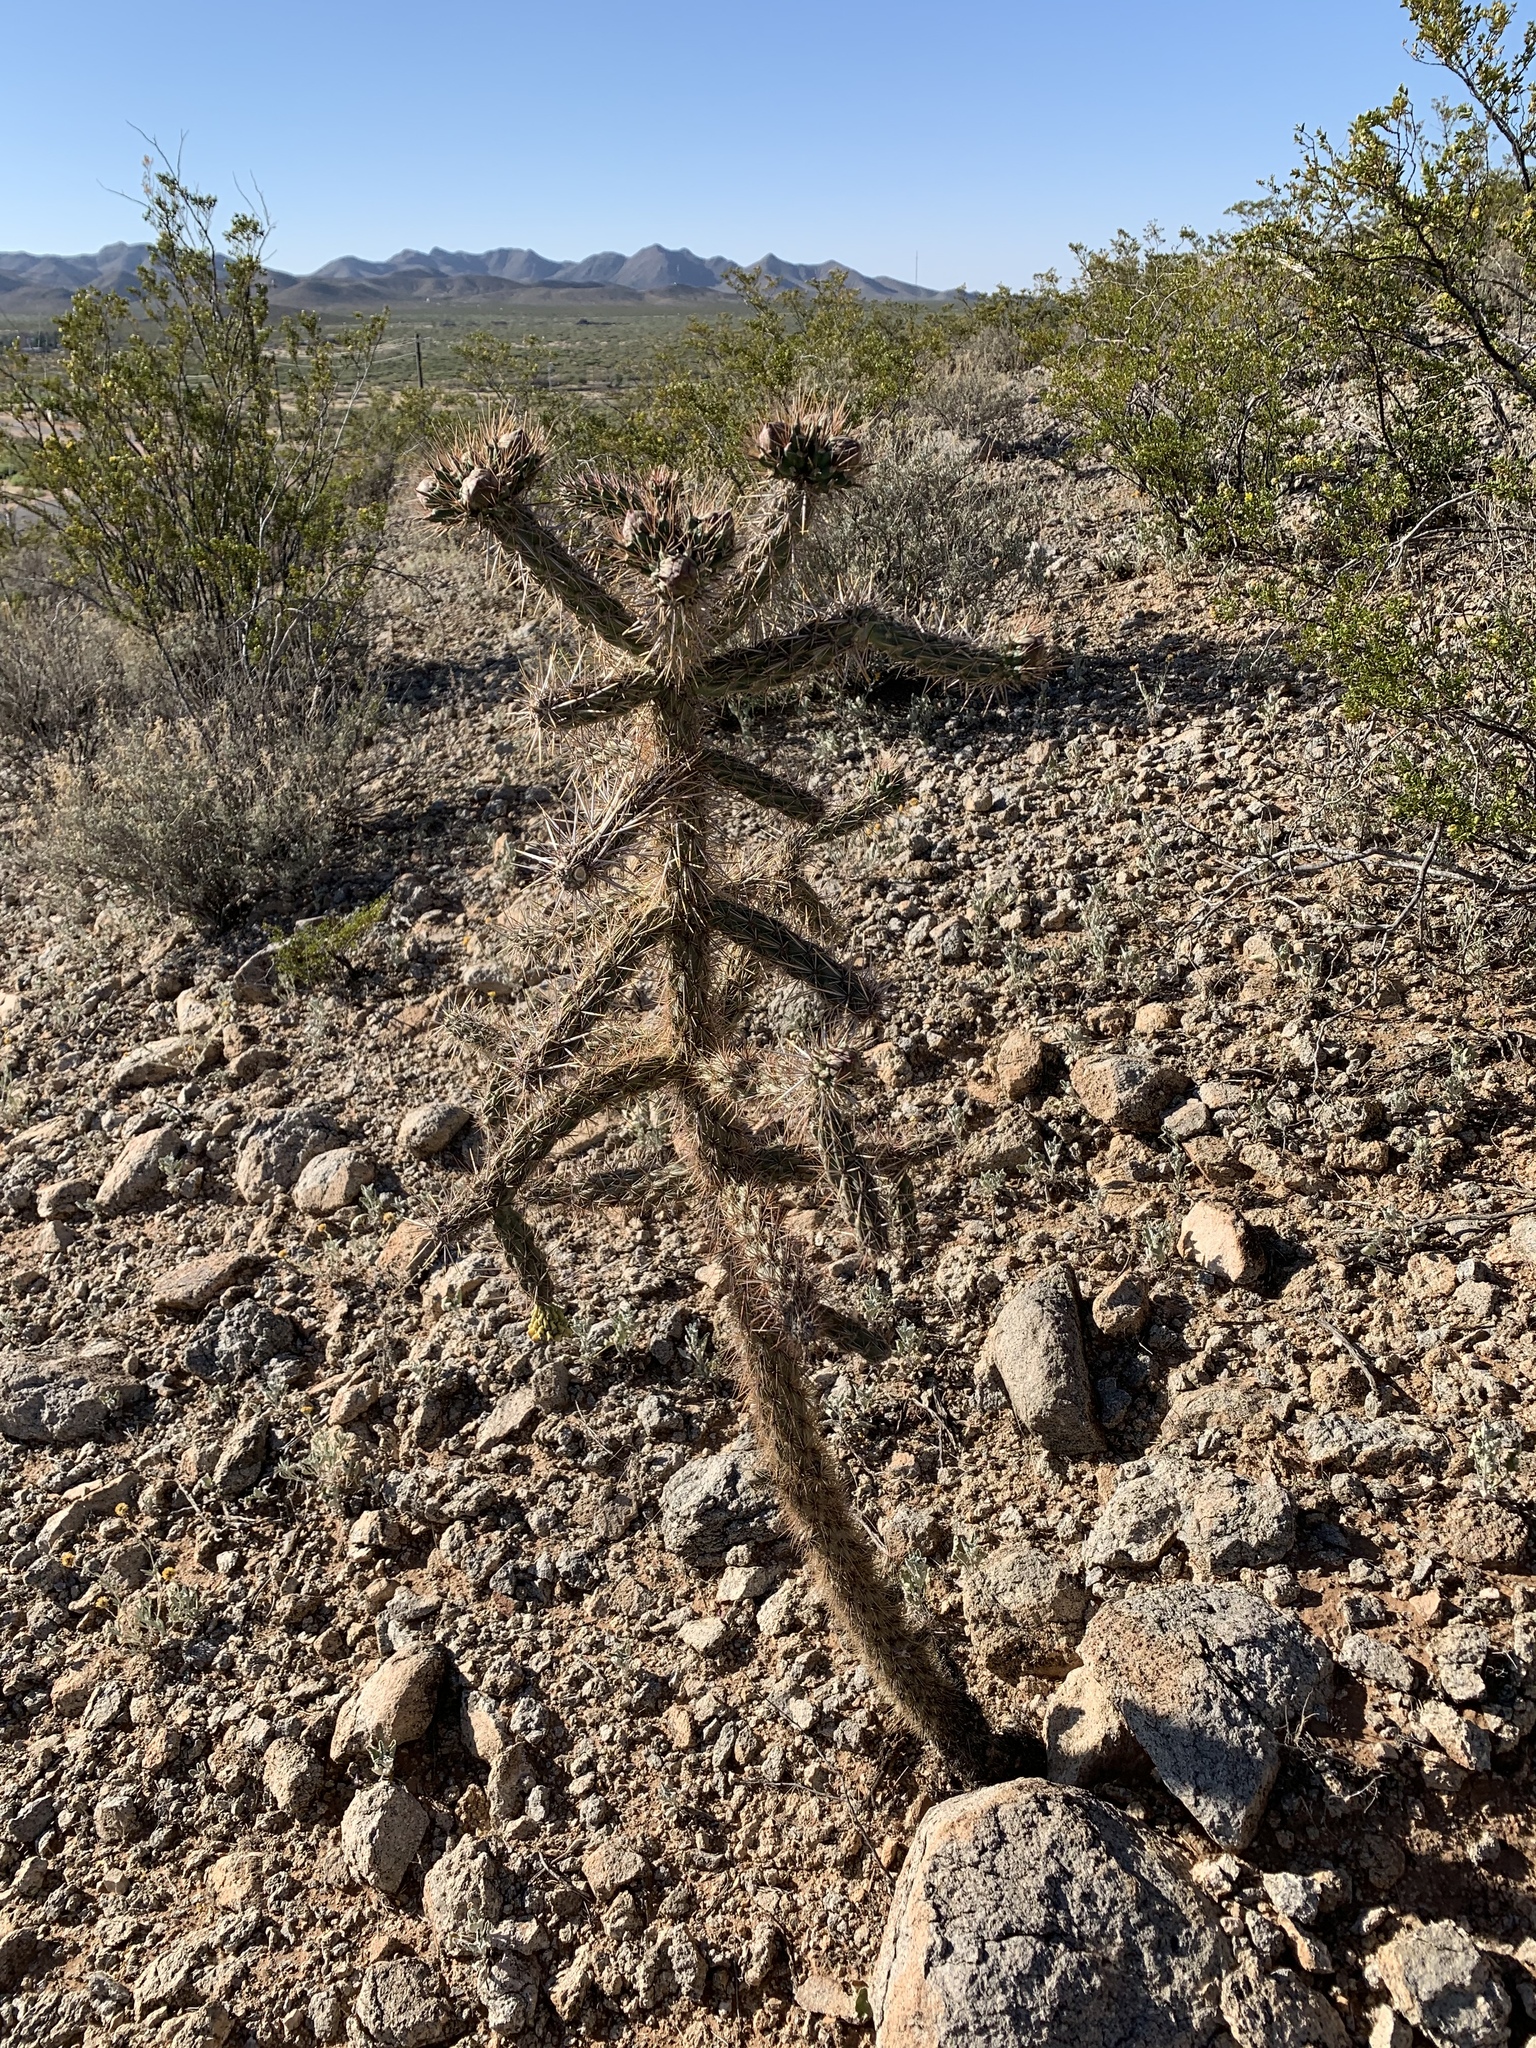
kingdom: Plantae
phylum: Tracheophyta
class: Magnoliopsida
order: Caryophyllales
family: Cactaceae
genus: Cylindropuntia
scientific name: Cylindropuntia imbricata
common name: Candelabrum cactus
